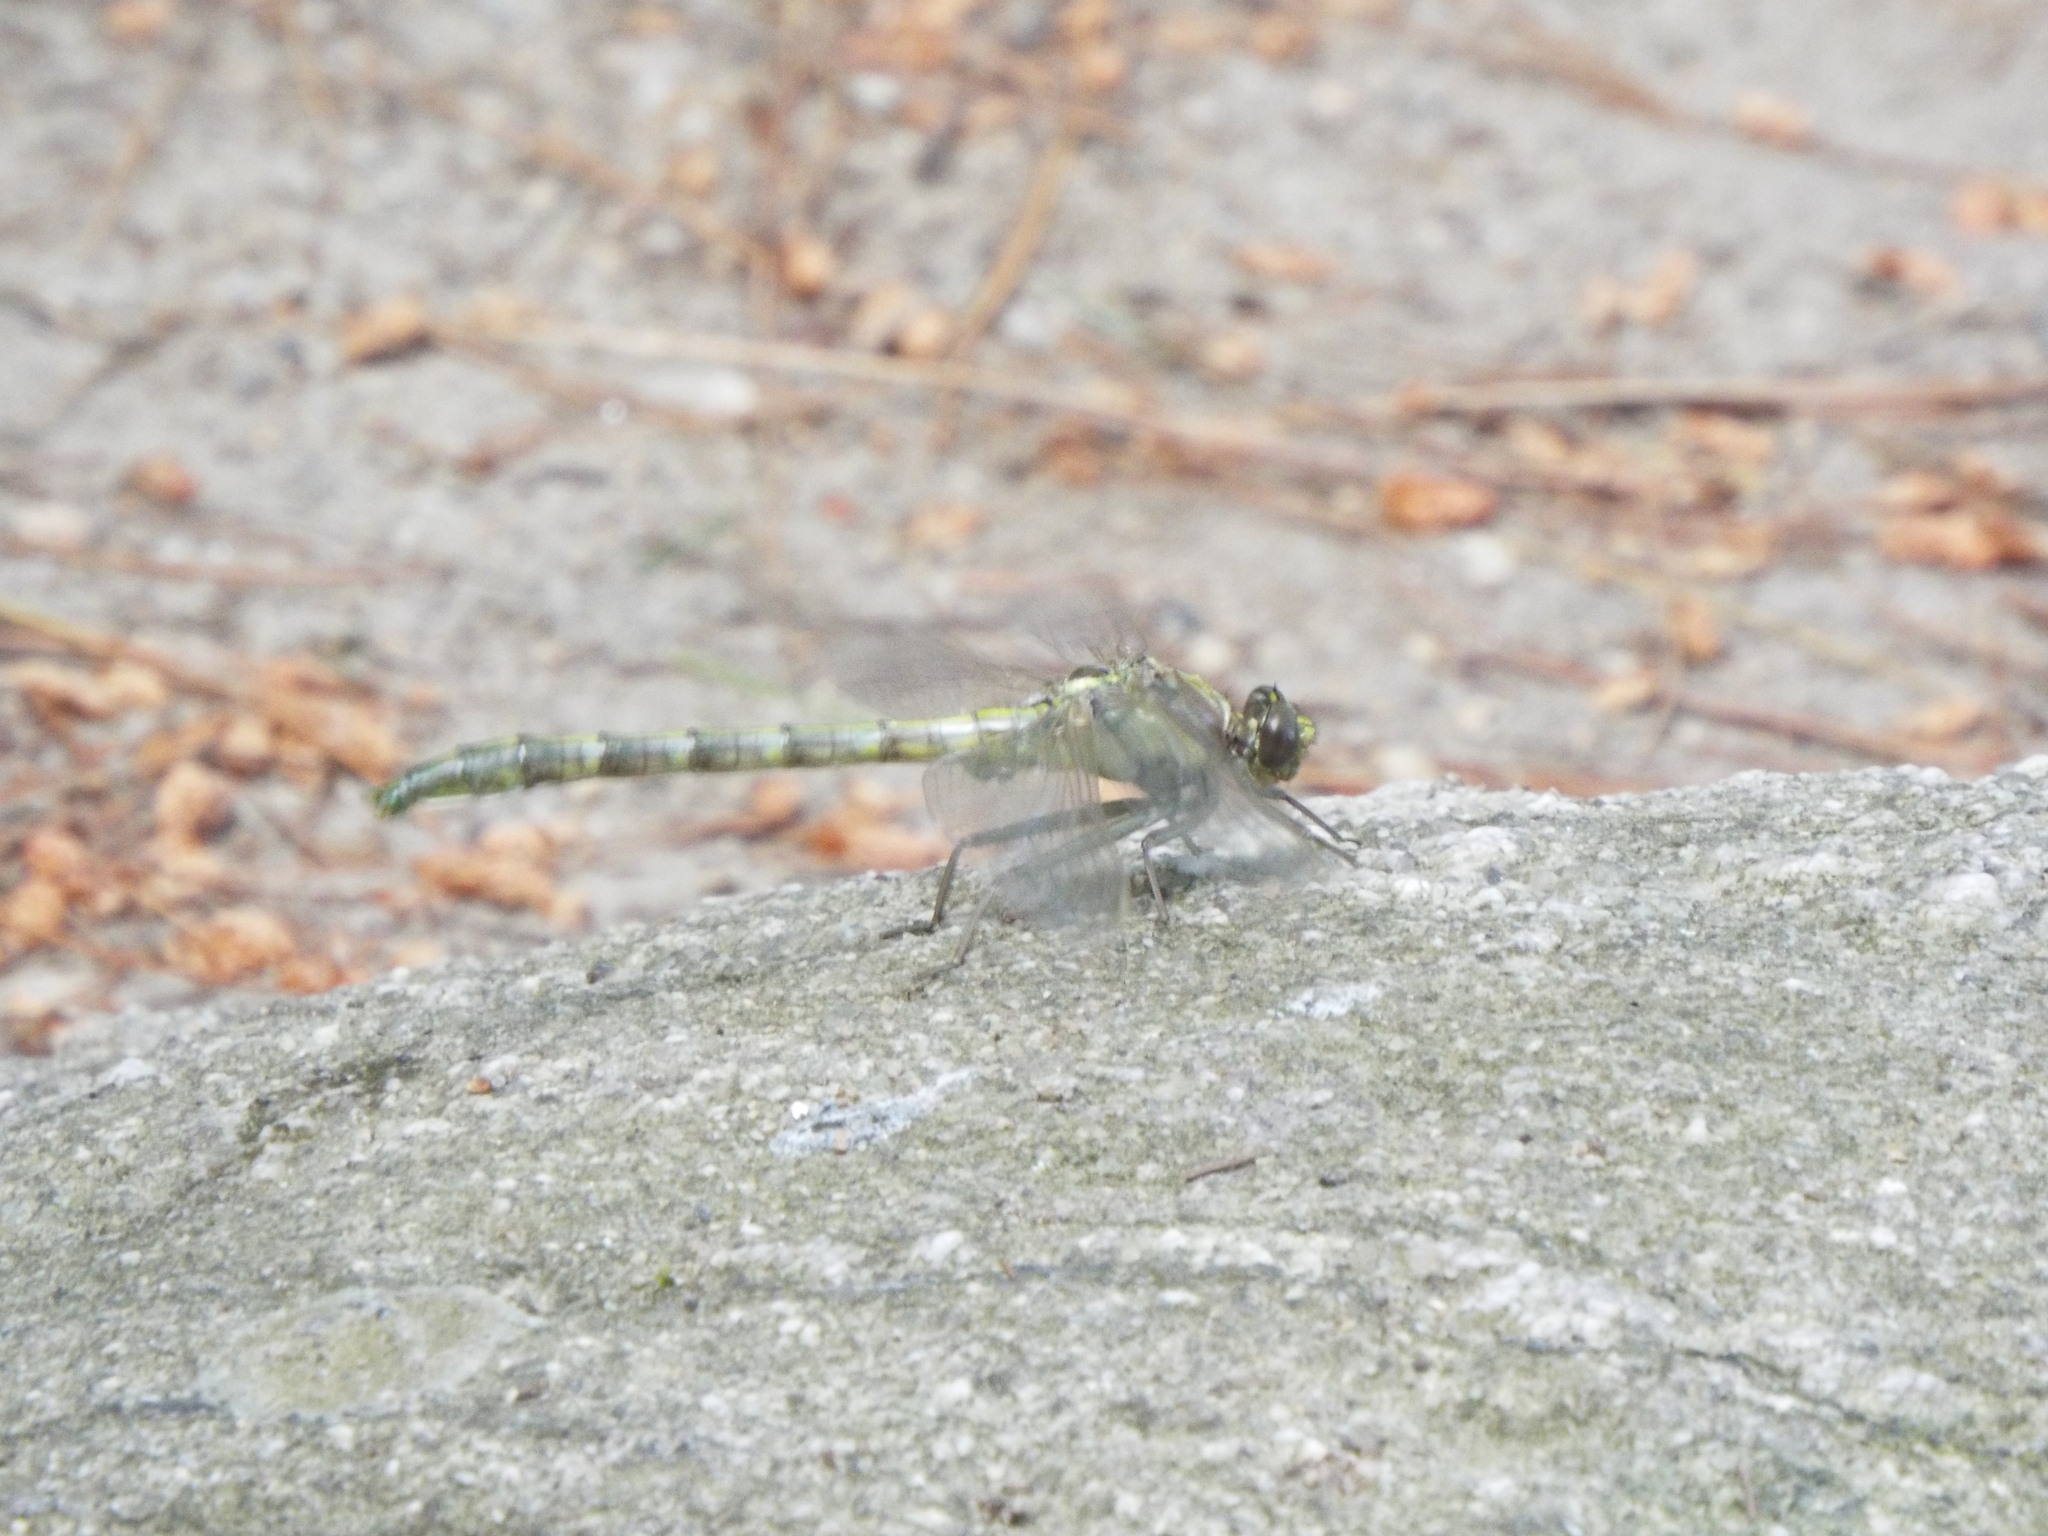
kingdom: Animalia
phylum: Arthropoda
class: Insecta
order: Odonata
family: Gomphidae
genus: Dromogomphus
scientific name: Dromogomphus spinosus
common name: Black-shouldered spinyleg
